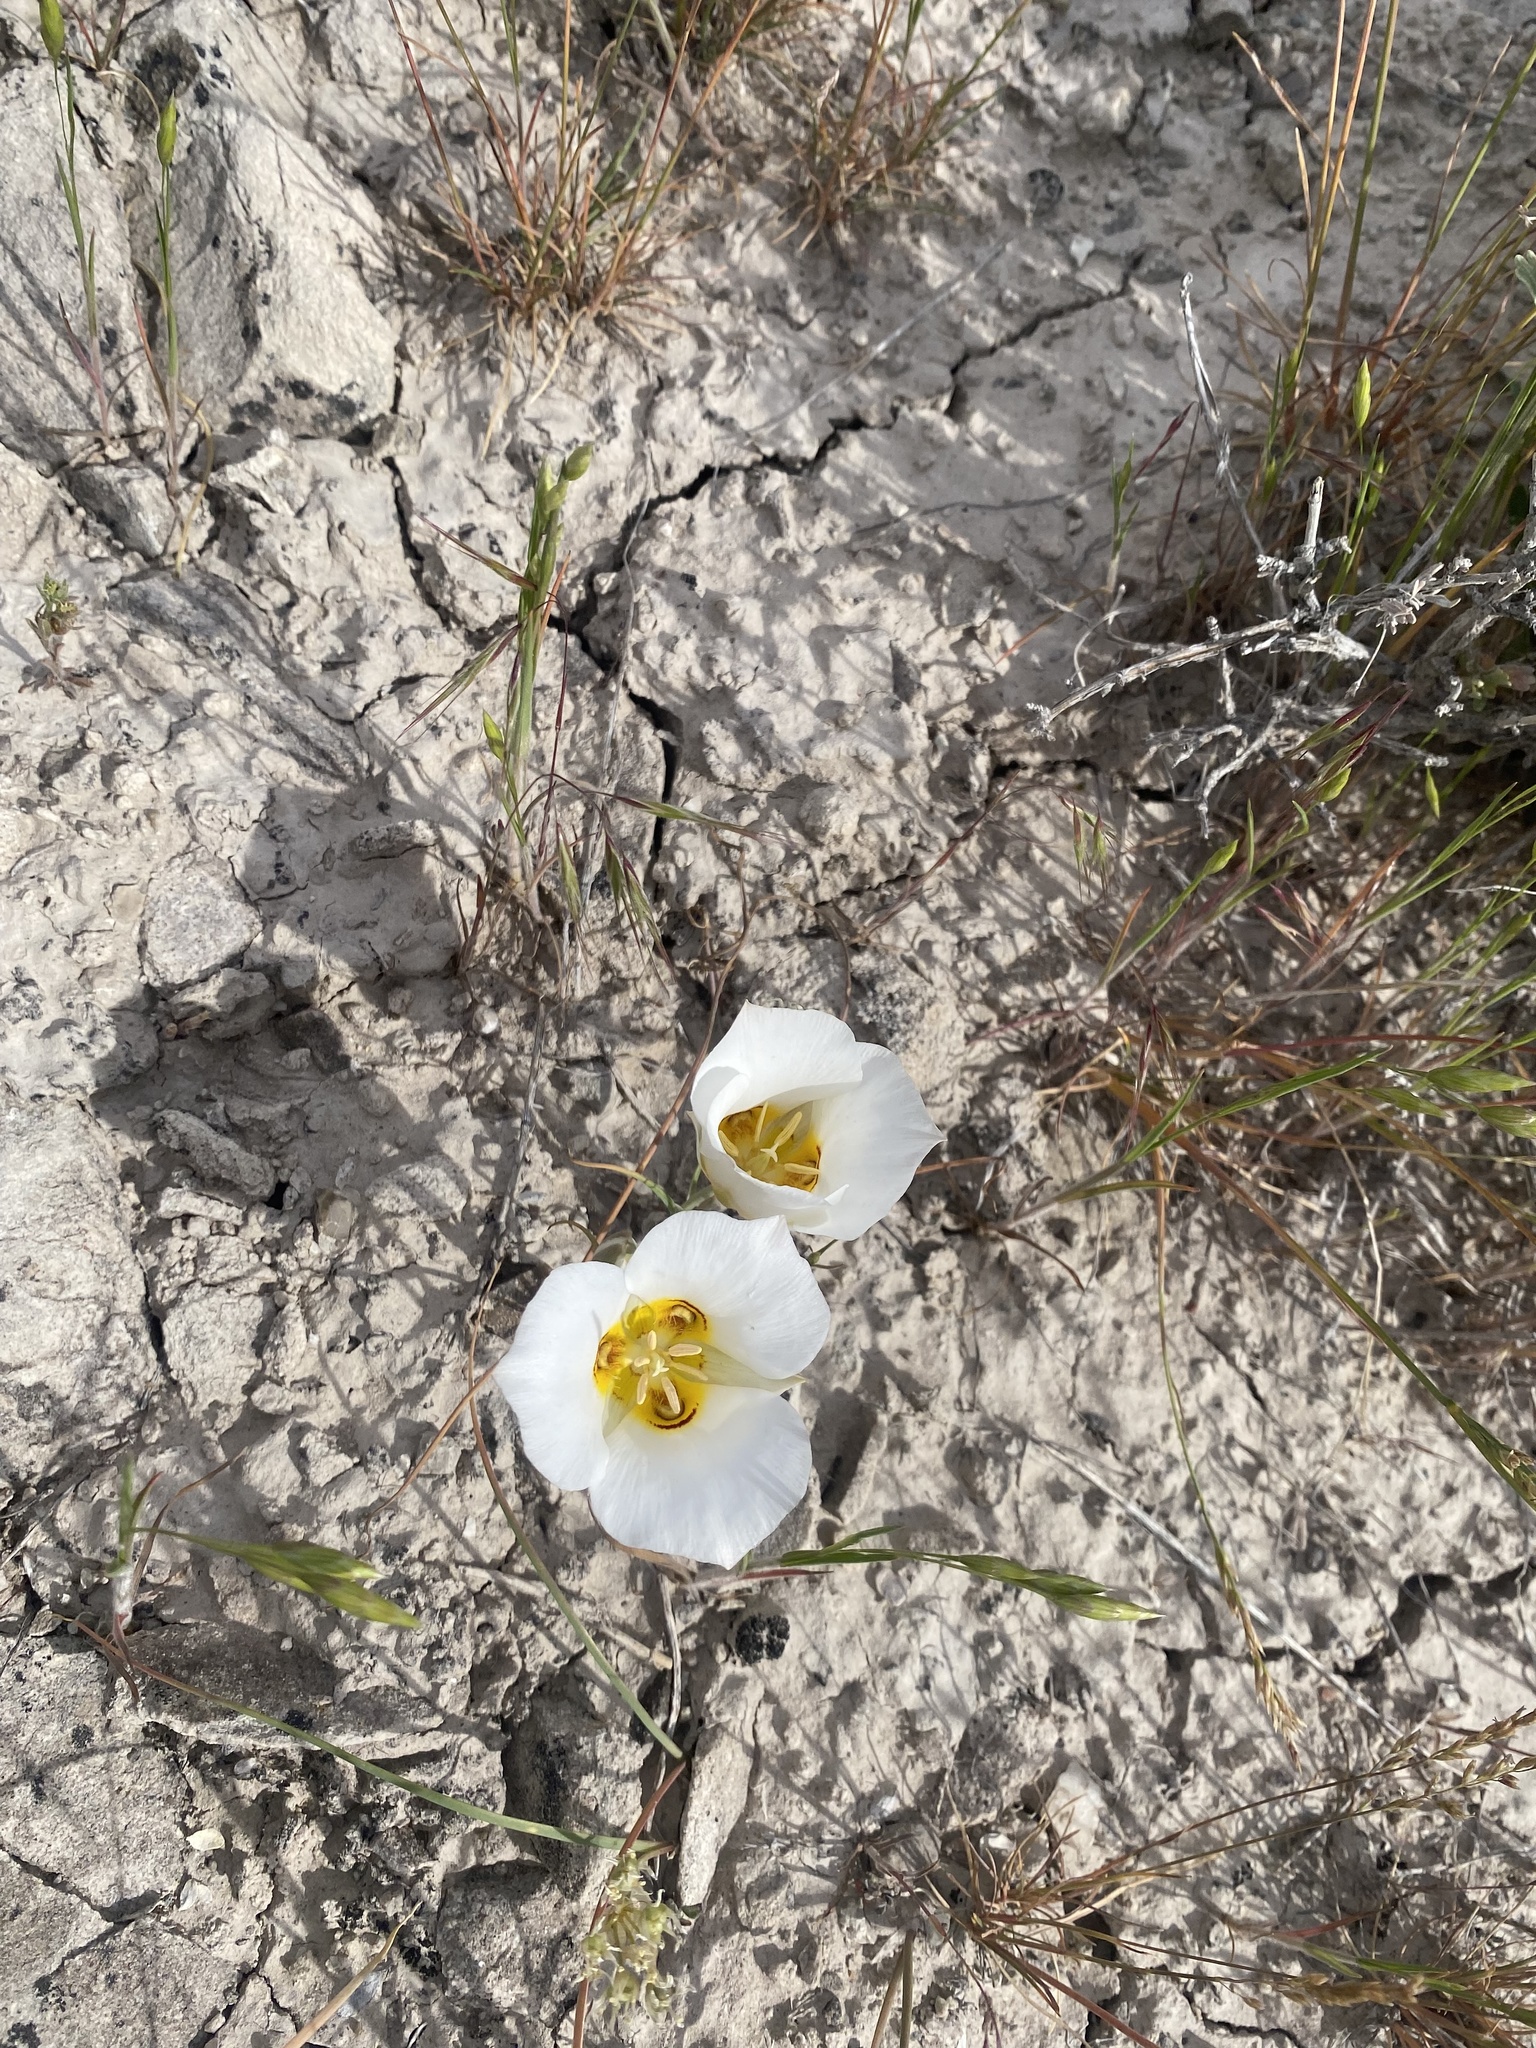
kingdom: Plantae
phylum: Tracheophyta
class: Liliopsida
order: Liliales
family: Liliaceae
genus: Calochortus
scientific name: Calochortus nuttallii
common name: Sego-lily
